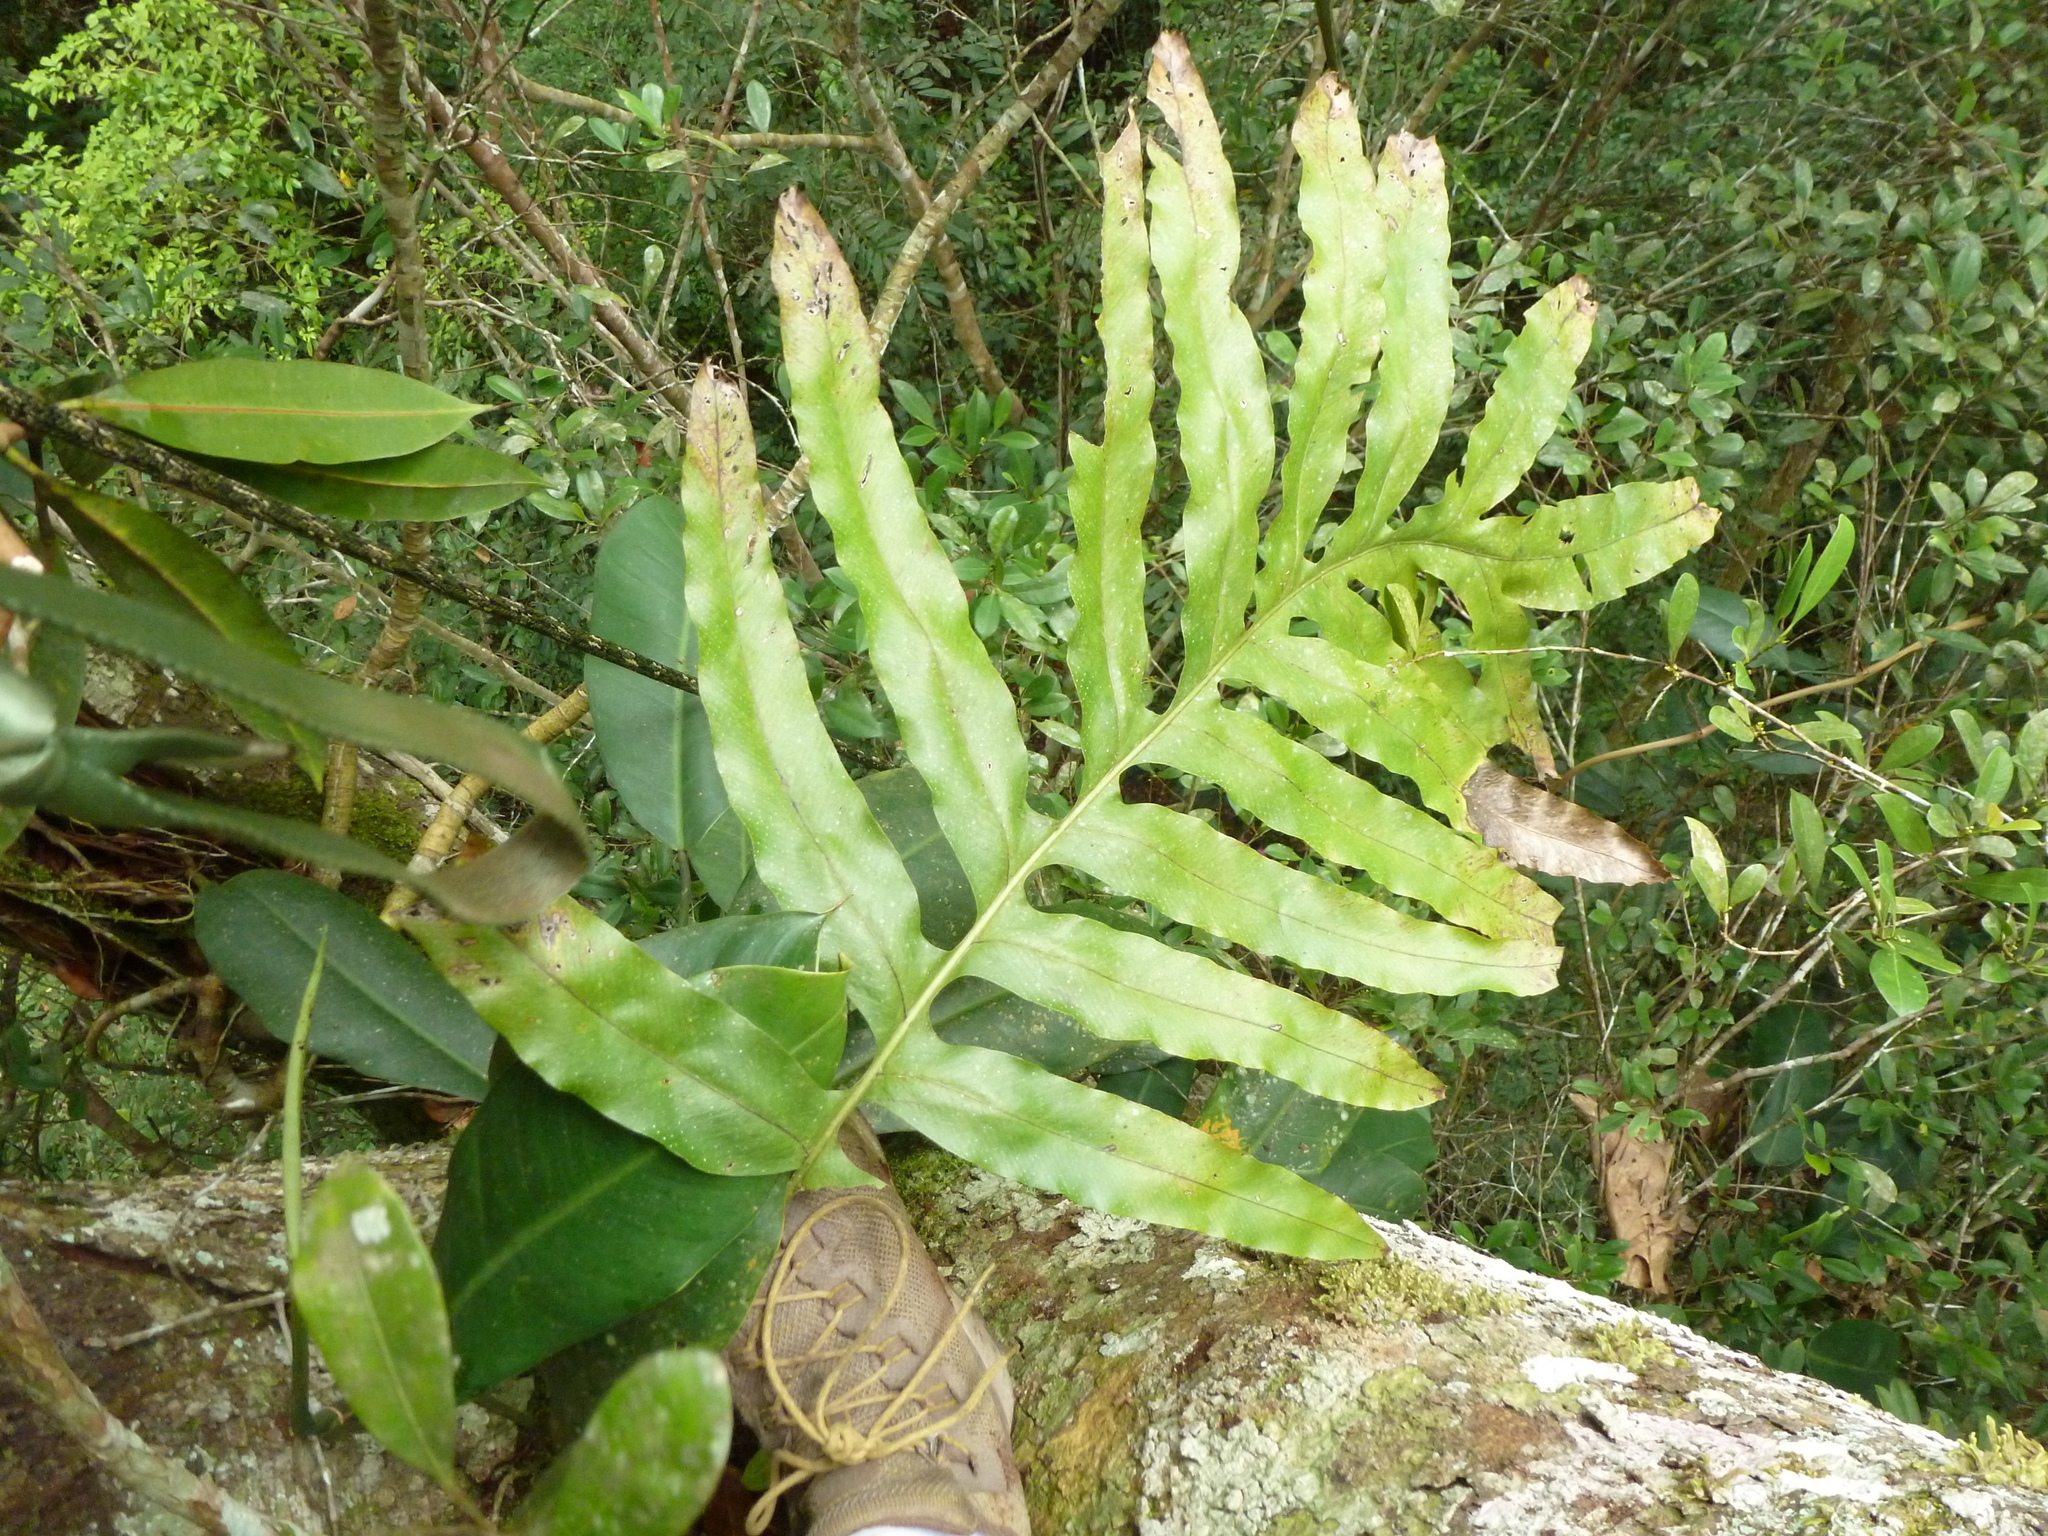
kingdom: Plantae
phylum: Tracheophyta
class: Polypodiopsida
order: Polypodiales
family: Polypodiaceae
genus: Phlebodium
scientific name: Phlebodium decumanum
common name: Golden polypod
